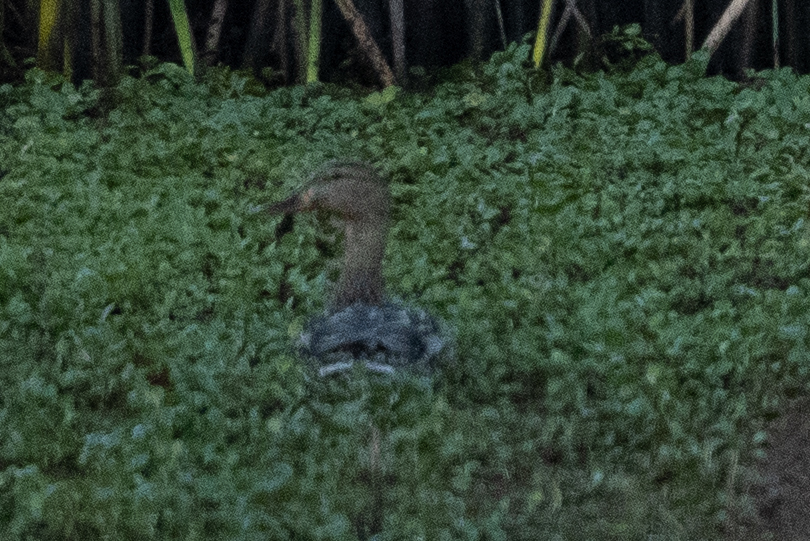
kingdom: Animalia
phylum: Chordata
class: Aves
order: Anseriformes
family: Anatidae
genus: Anas
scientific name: Anas platyrhynchos
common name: Mallard
